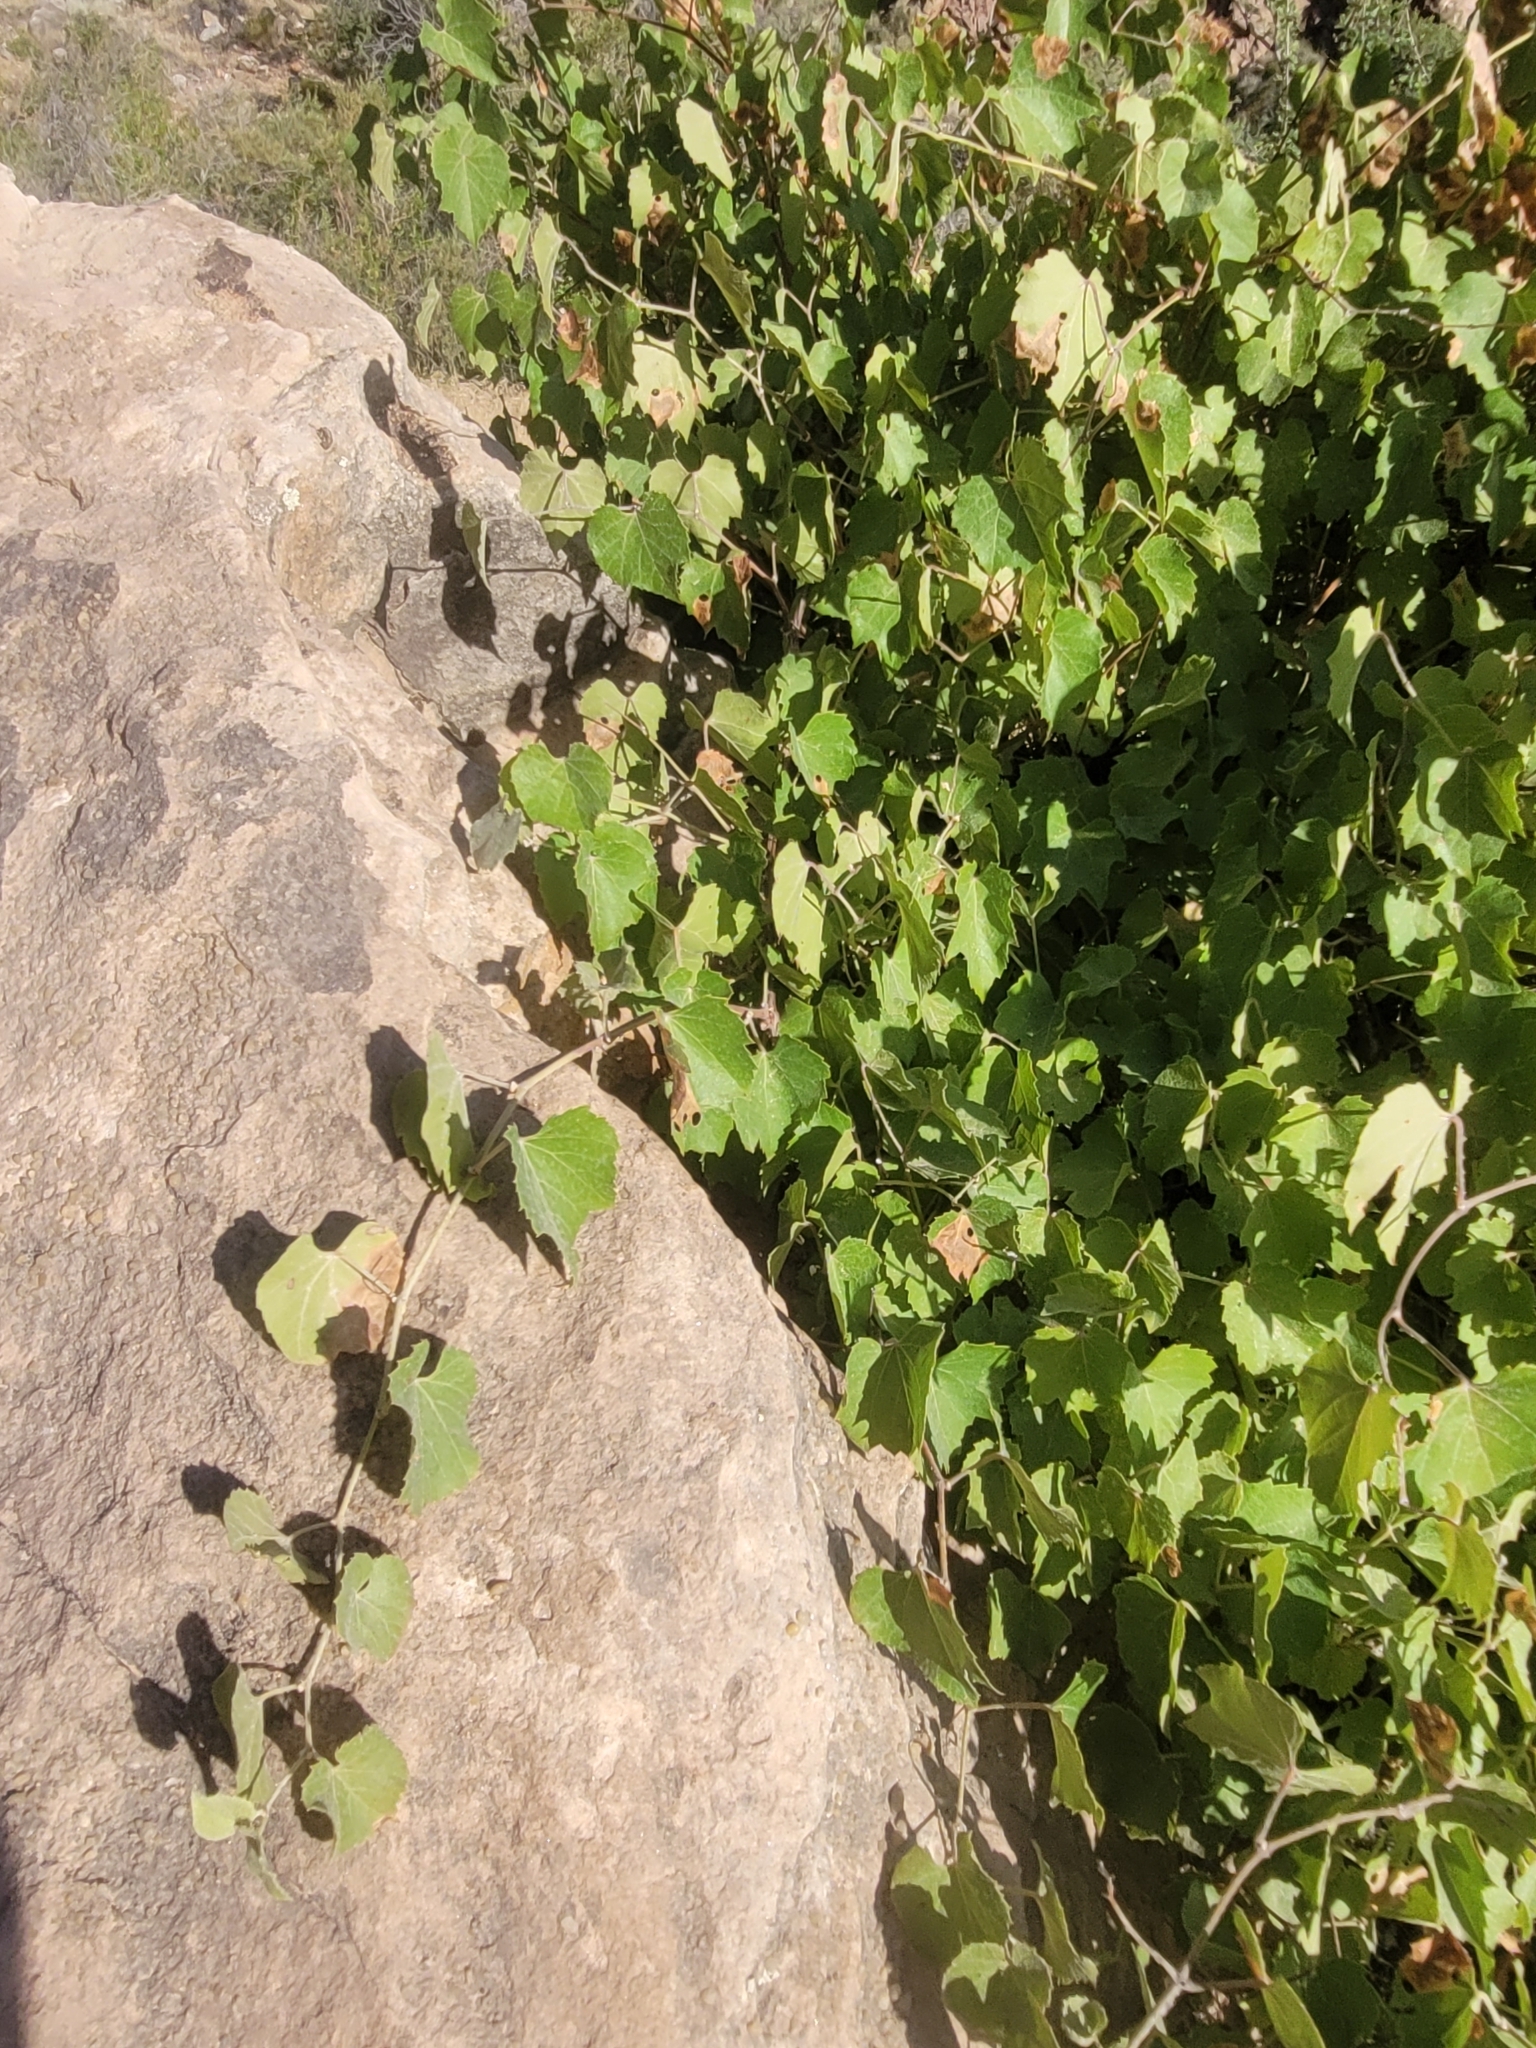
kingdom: Plantae
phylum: Tracheophyta
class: Magnoliopsida
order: Vitales
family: Vitaceae
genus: Vitis
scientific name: Vitis arizonica
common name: Canyon grape
